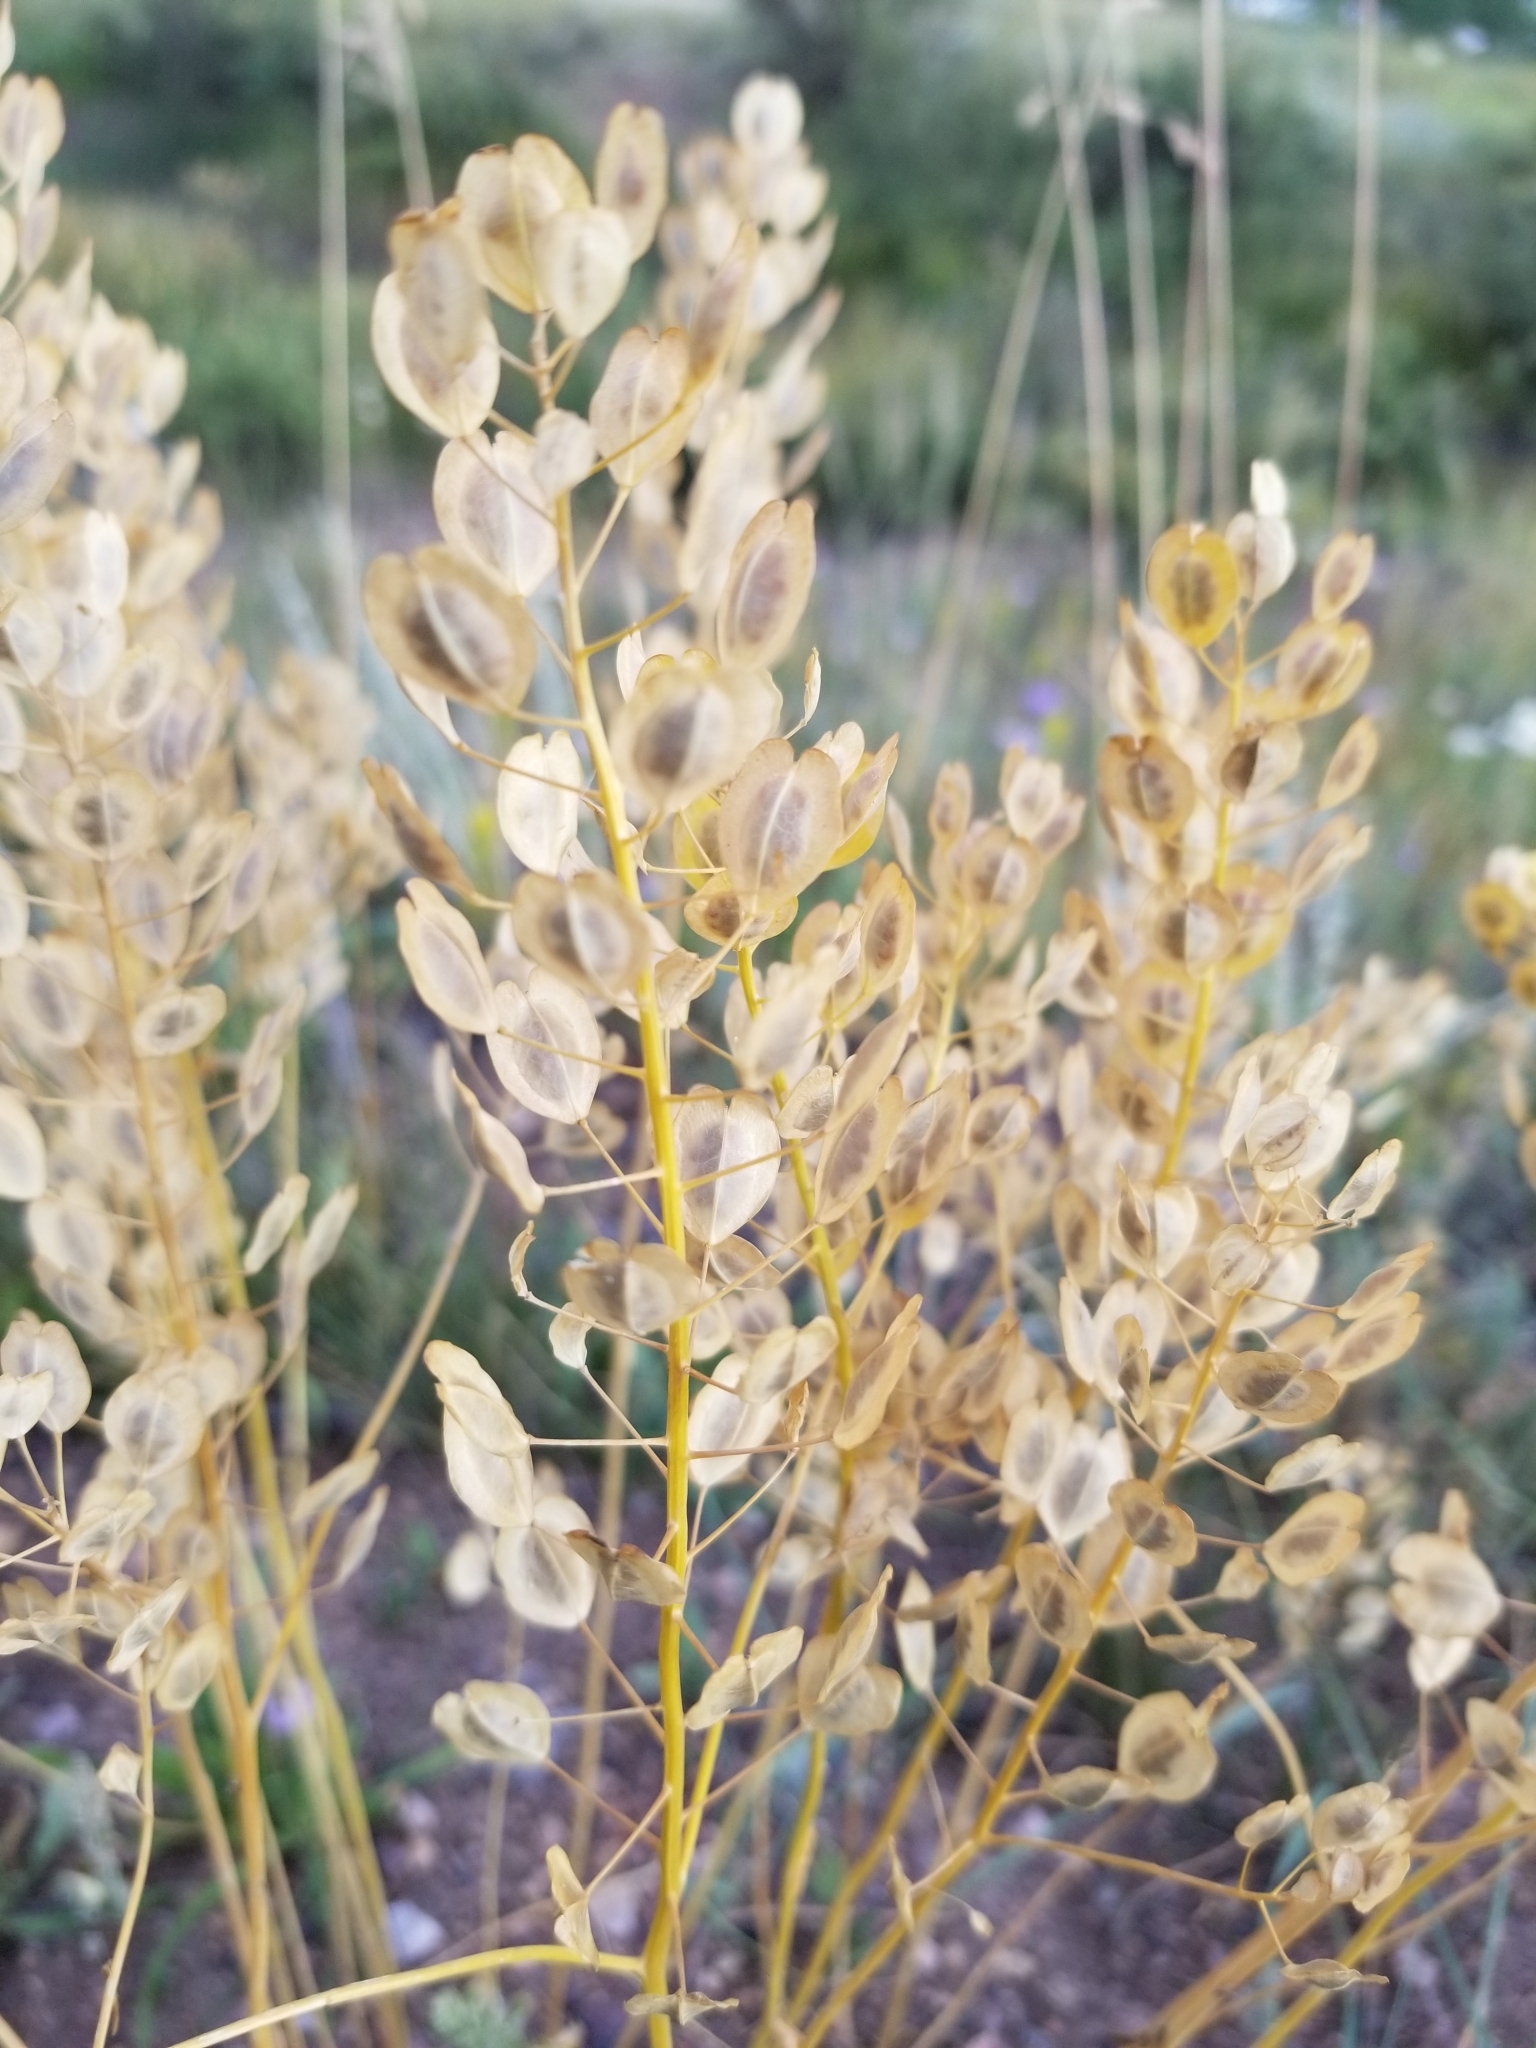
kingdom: Plantae
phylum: Tracheophyta
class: Magnoliopsida
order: Brassicales
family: Brassicaceae
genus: Thlaspi
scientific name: Thlaspi arvense
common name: Field pennycress
